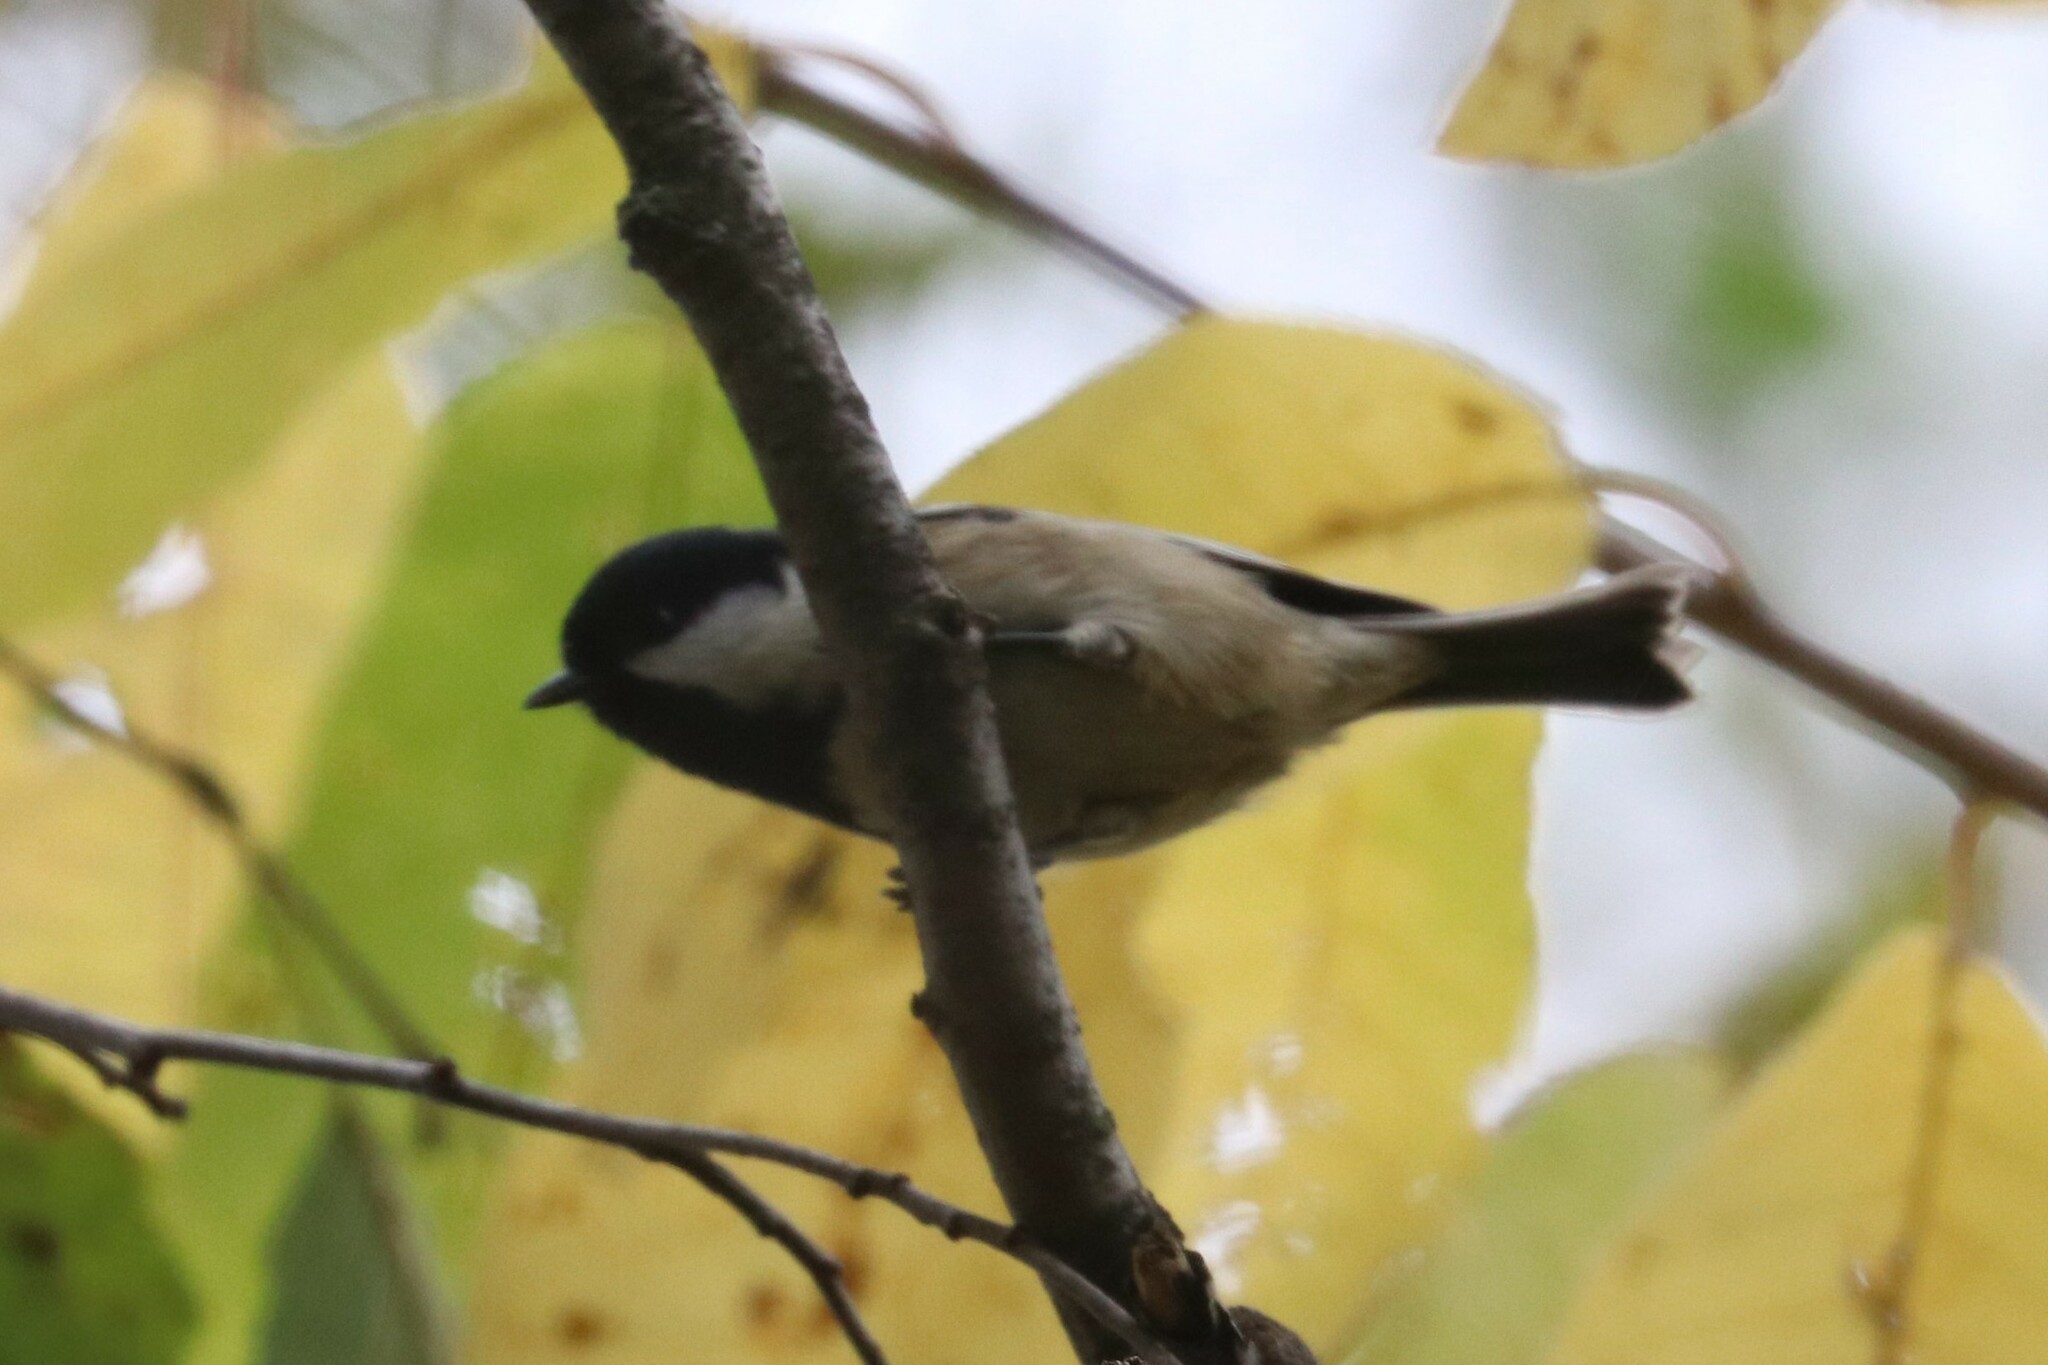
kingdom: Animalia
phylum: Chordata
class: Aves
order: Passeriformes
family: Paridae
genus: Periparus
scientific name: Periparus ater
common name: Coal tit
